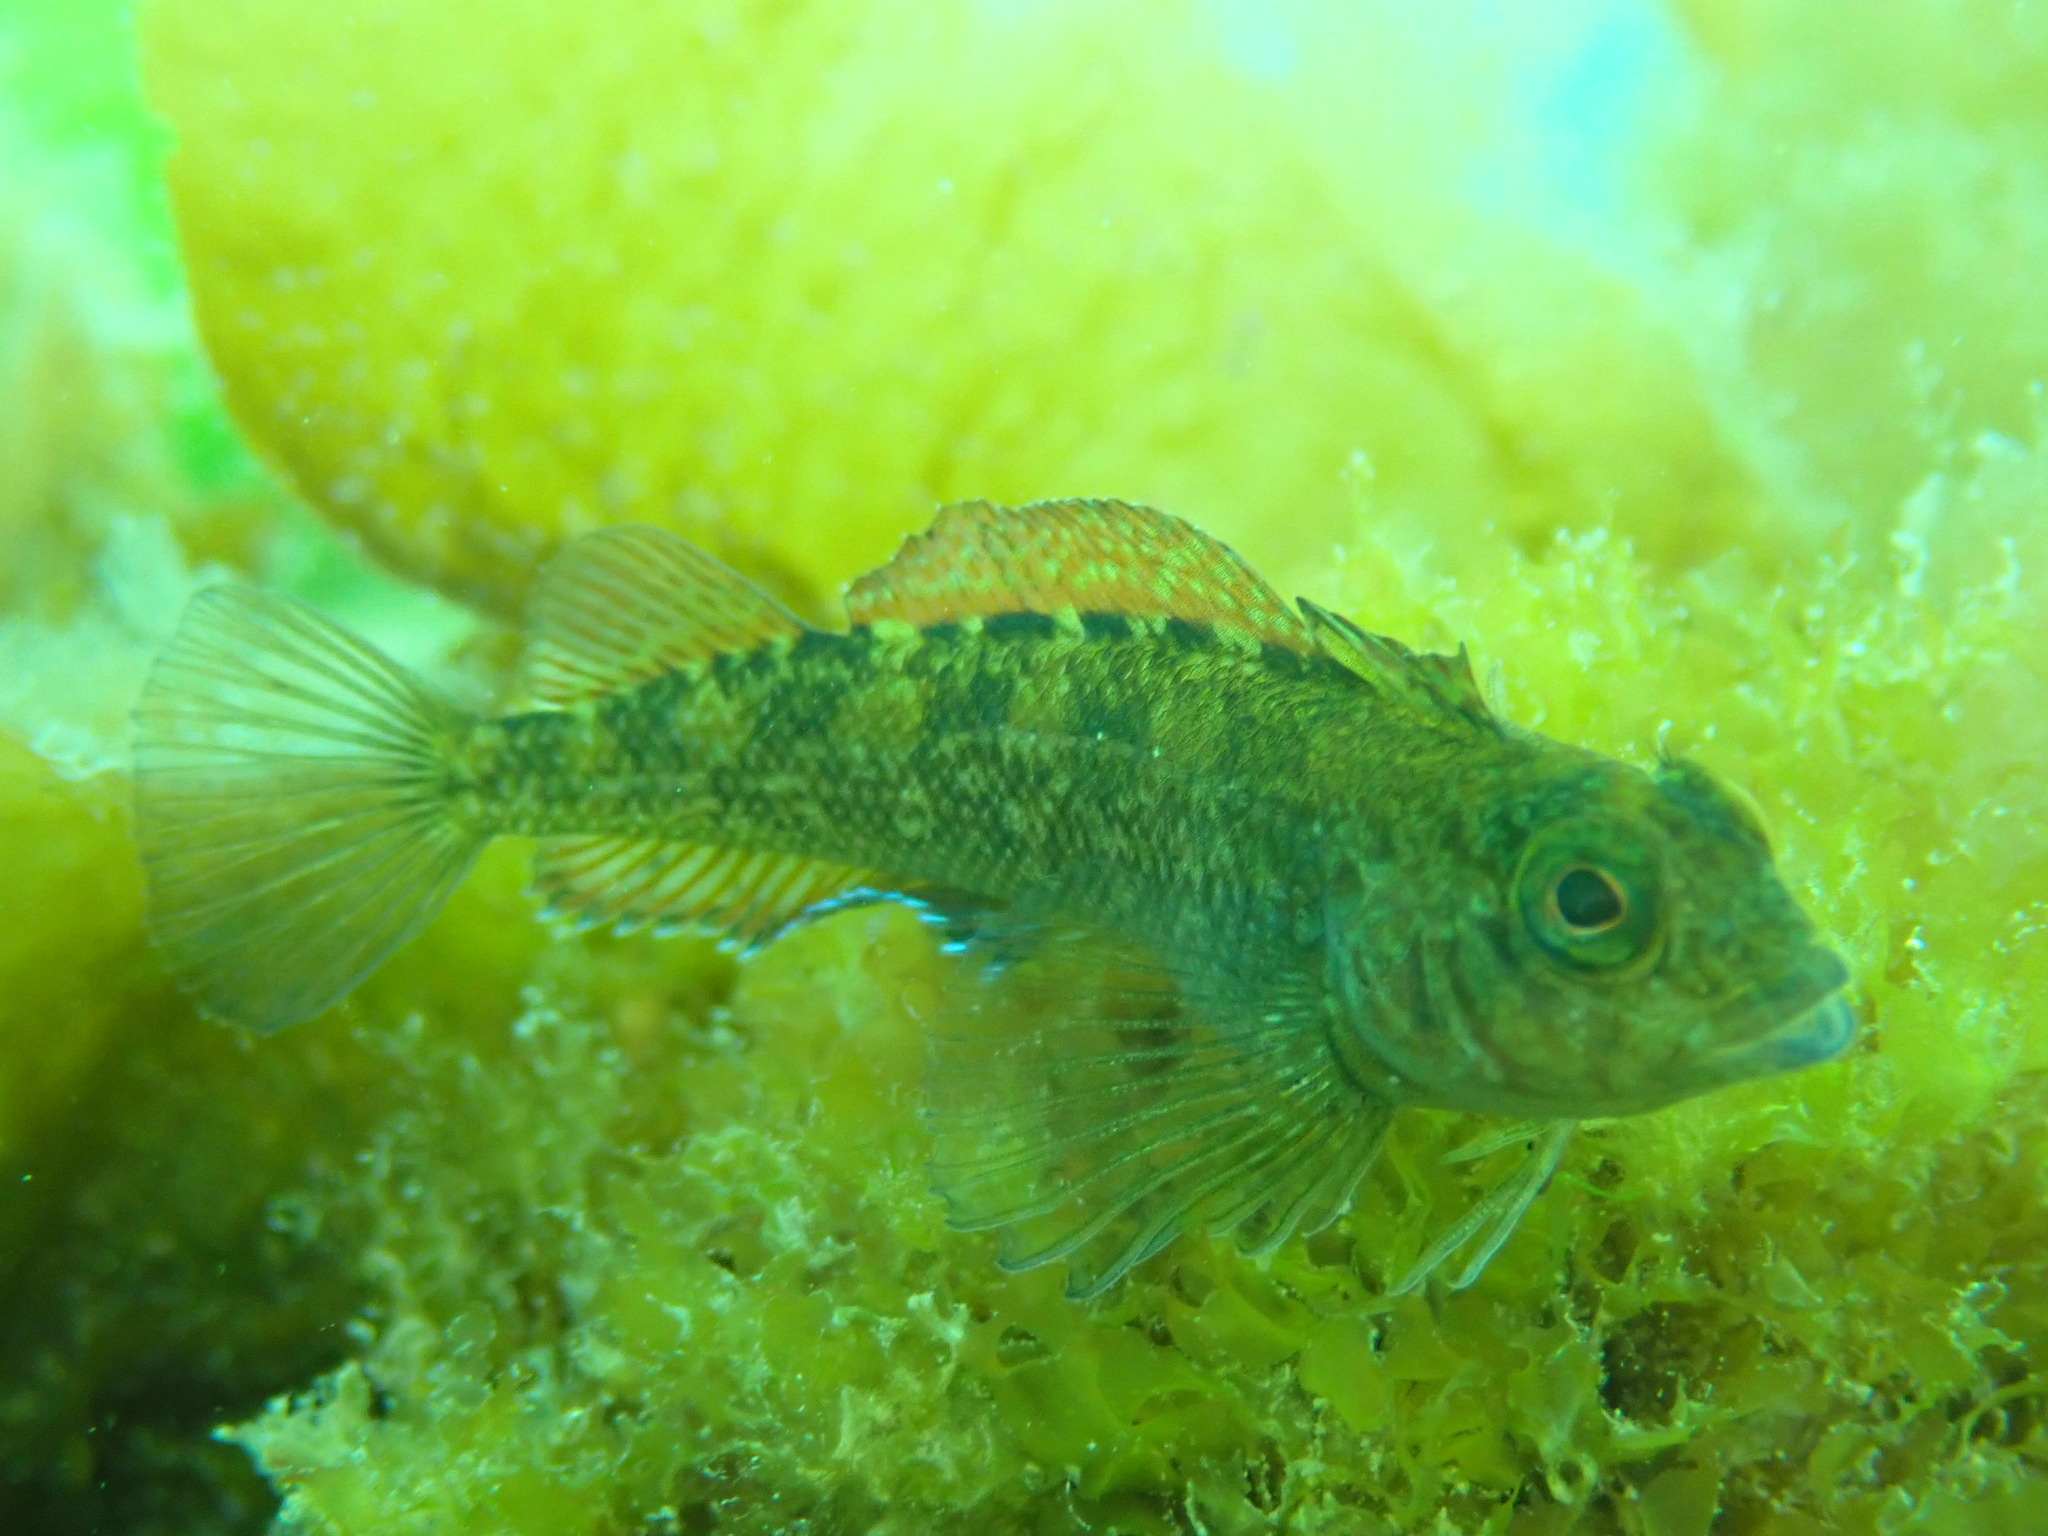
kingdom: Animalia
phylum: Chordata
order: Perciformes
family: Tripterygiidae
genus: Forsterygion
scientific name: Forsterygion lapillum
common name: Common triplefin
